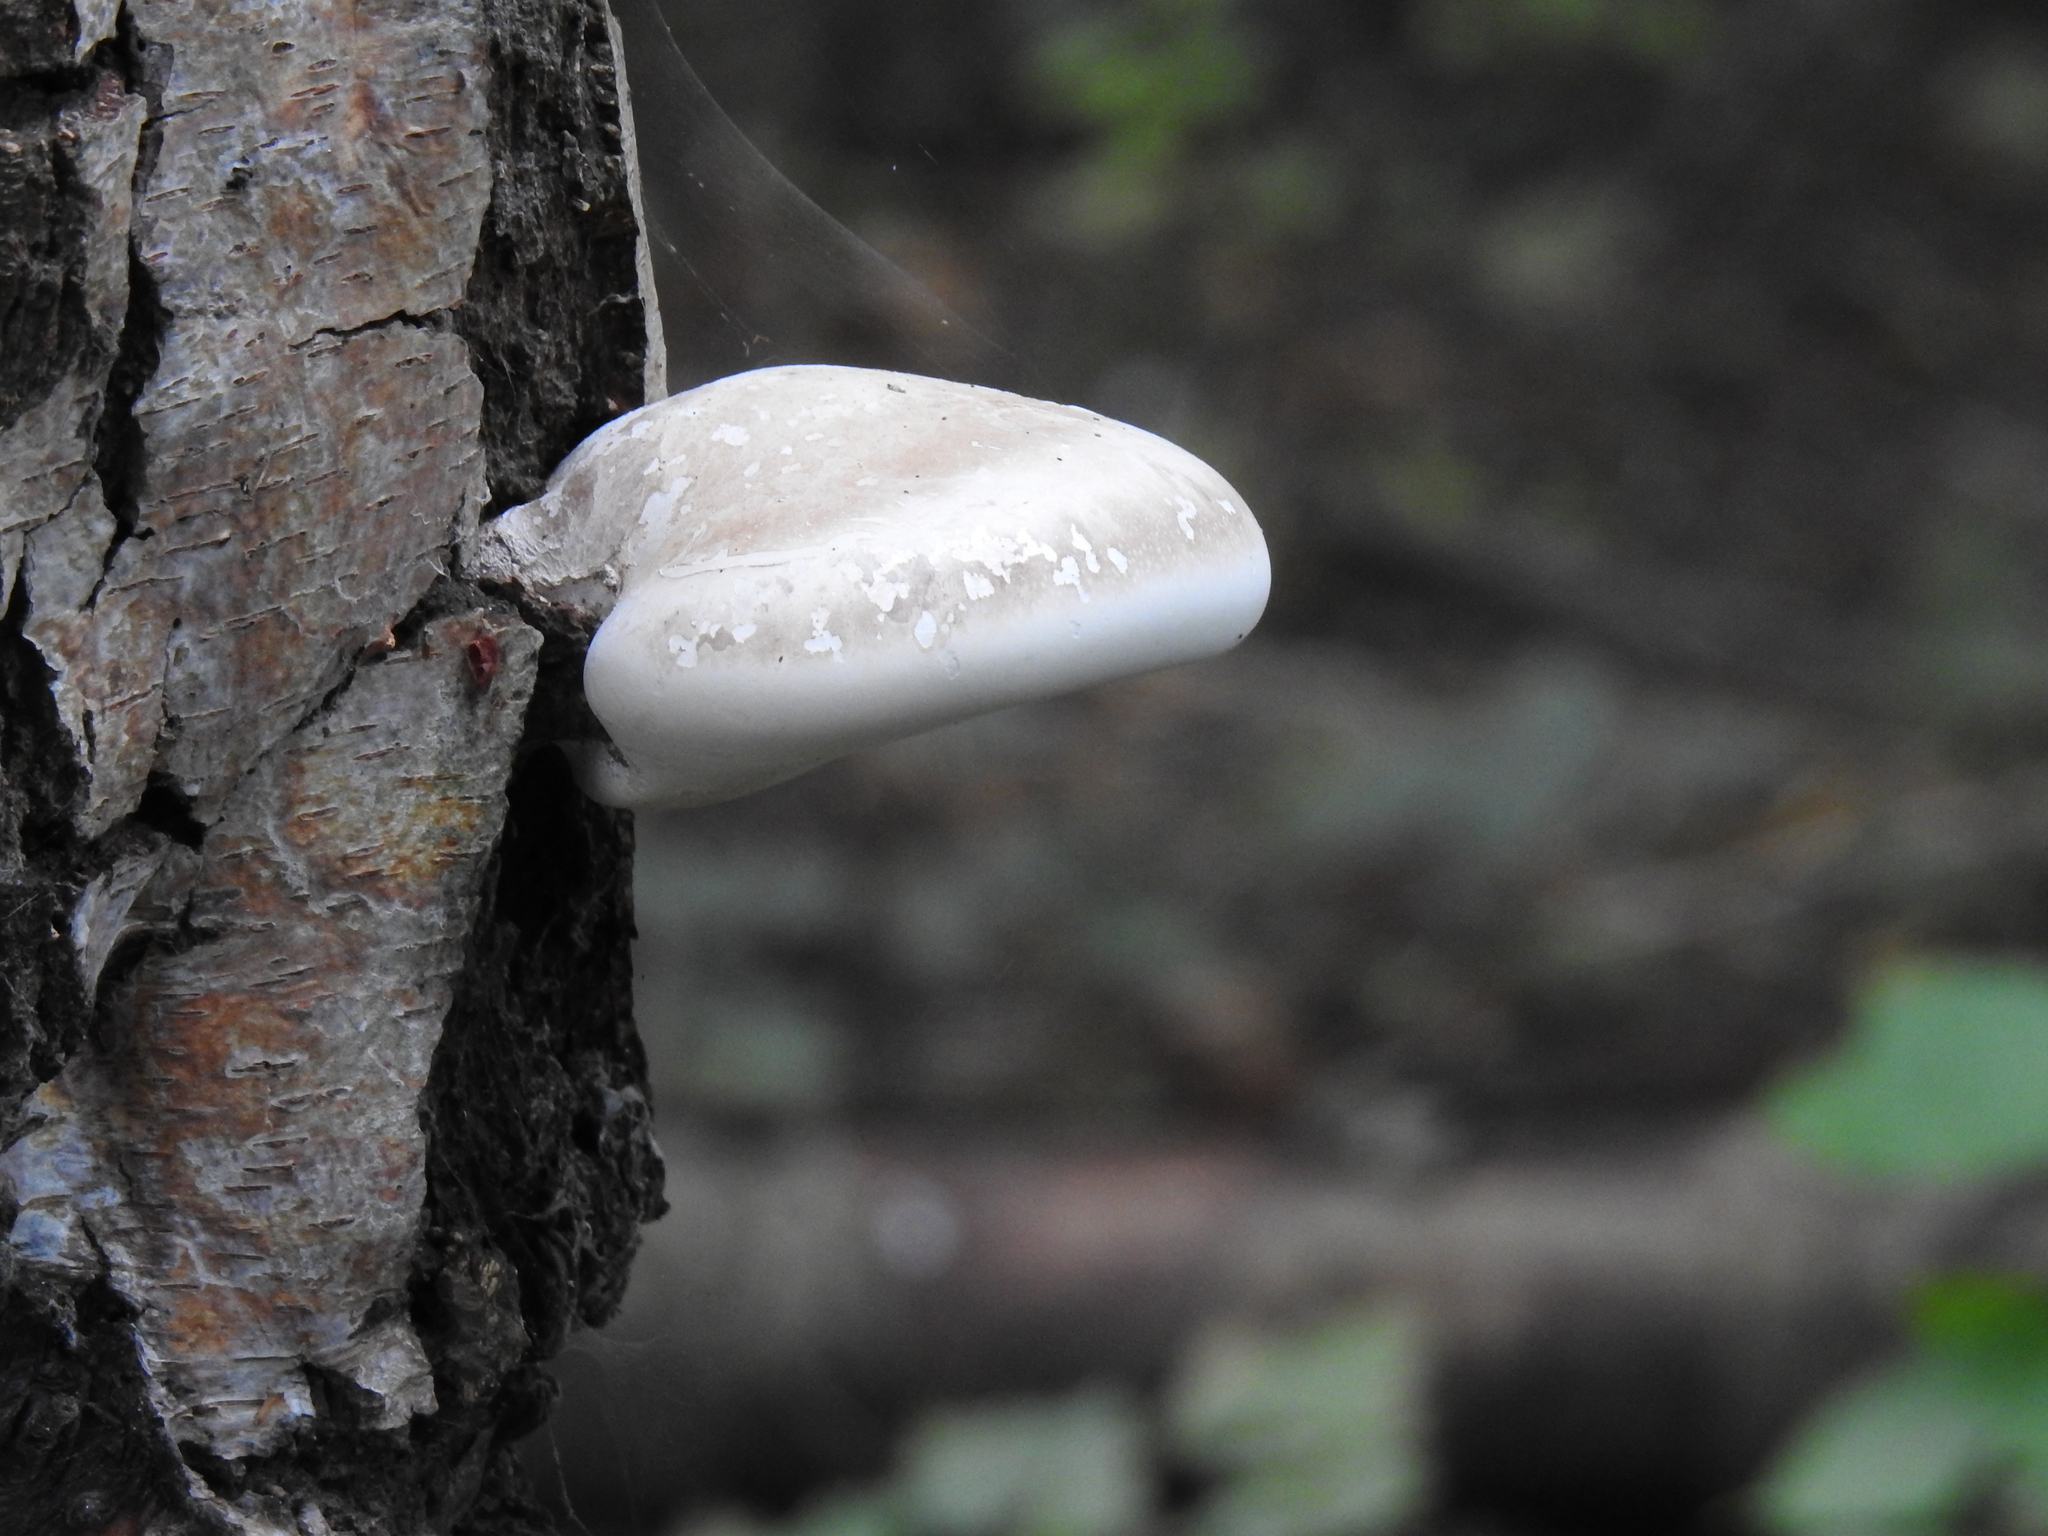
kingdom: Fungi
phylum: Basidiomycota
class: Agaricomycetes
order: Polyporales
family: Fomitopsidaceae
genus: Fomitopsis
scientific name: Fomitopsis betulina
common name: Birch polypore
